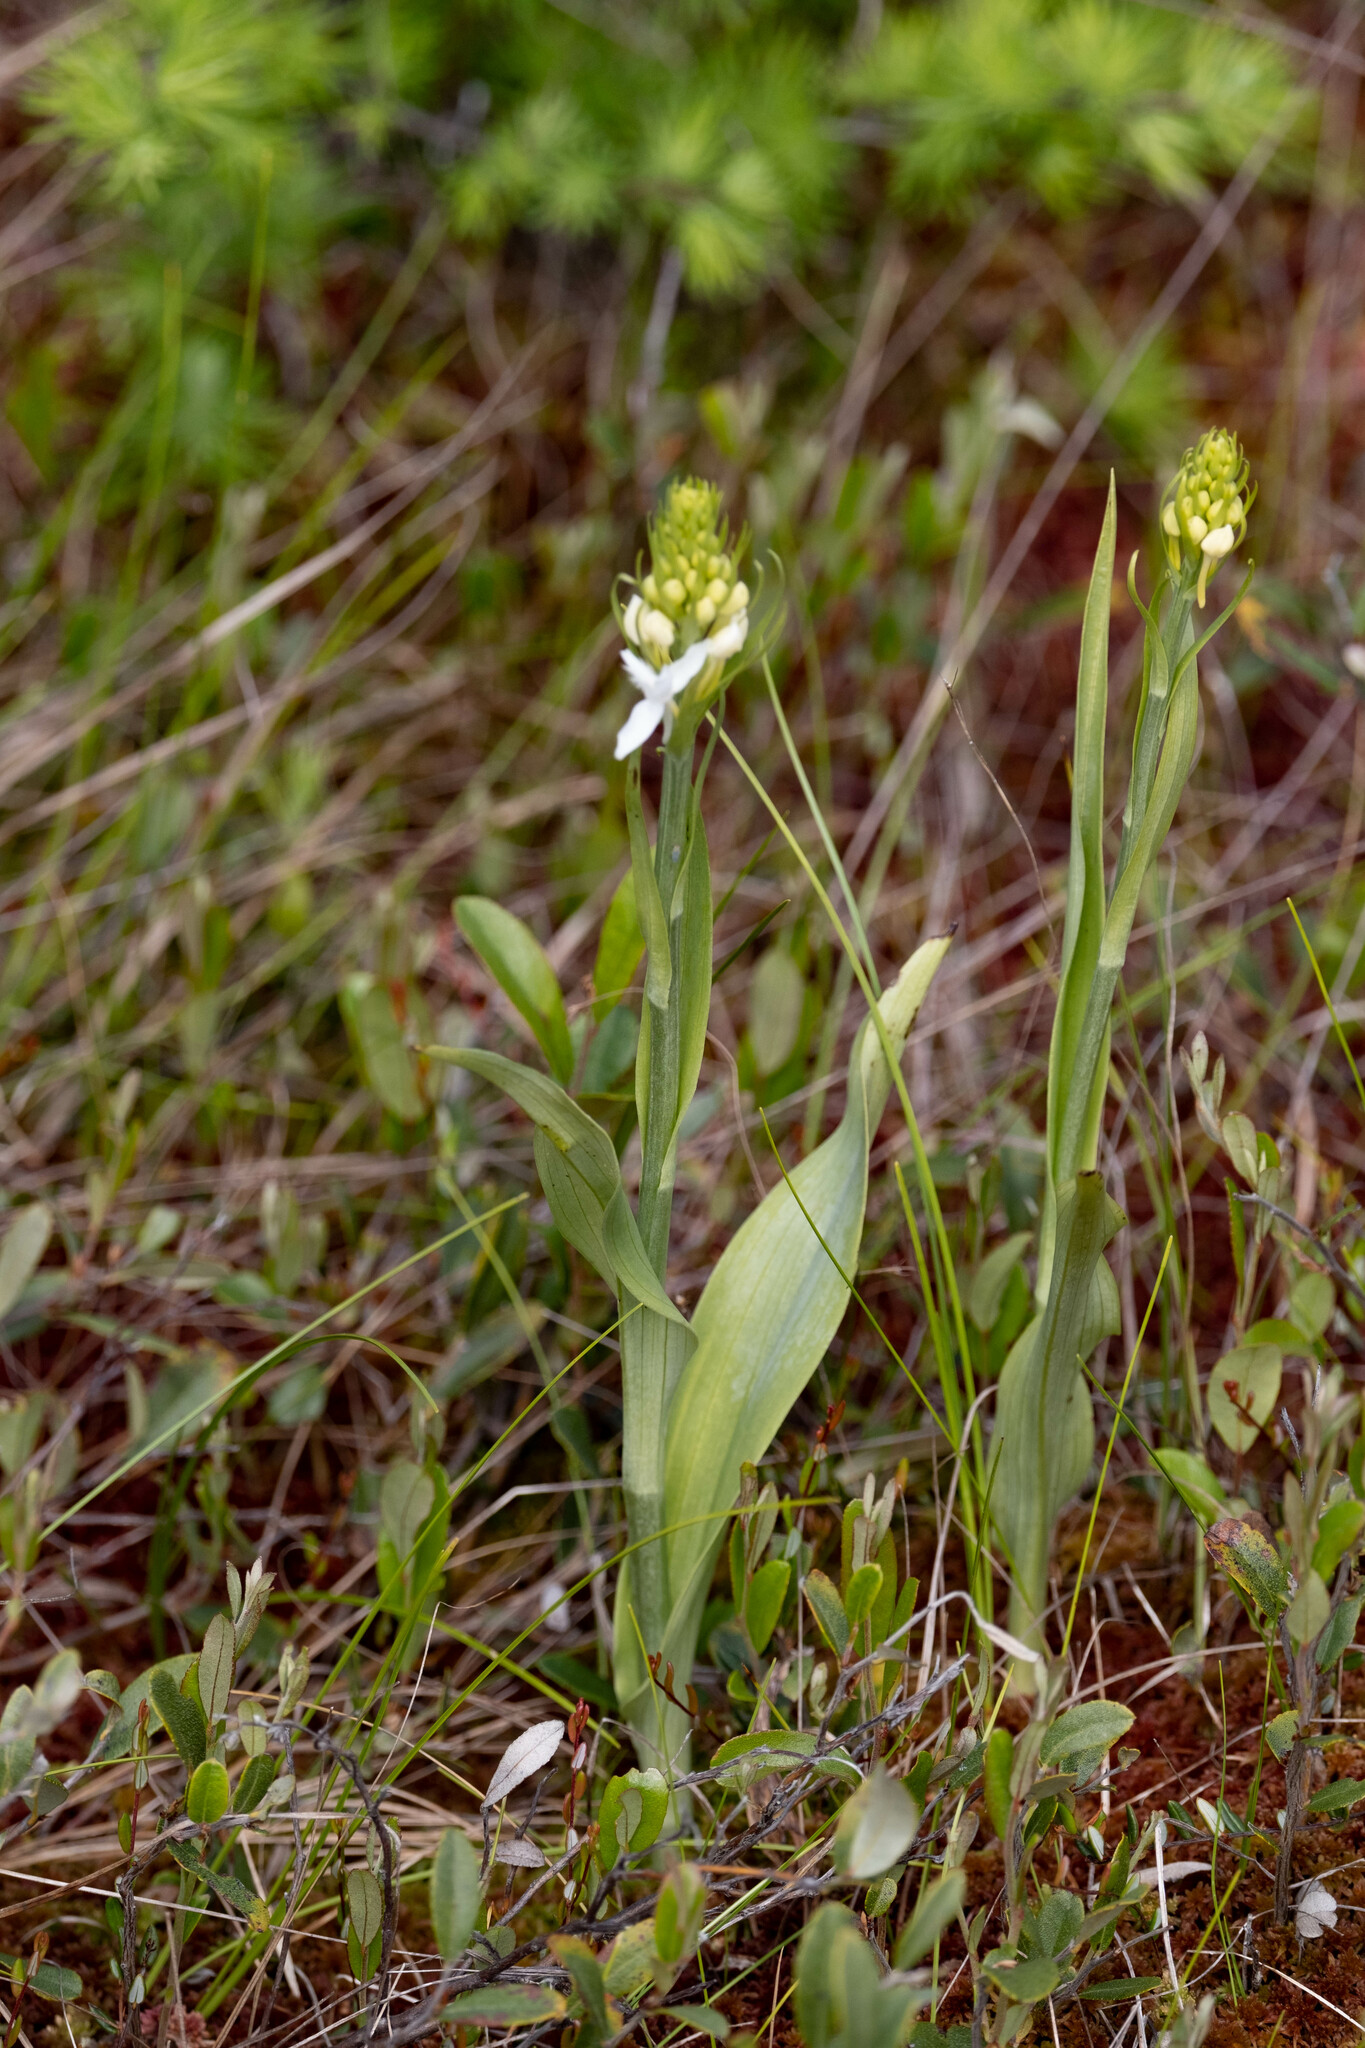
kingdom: Plantae
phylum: Tracheophyta
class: Liliopsida
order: Asparagales
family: Orchidaceae
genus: Platanthera
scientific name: Platanthera blephariglottis
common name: White fringed orchid
